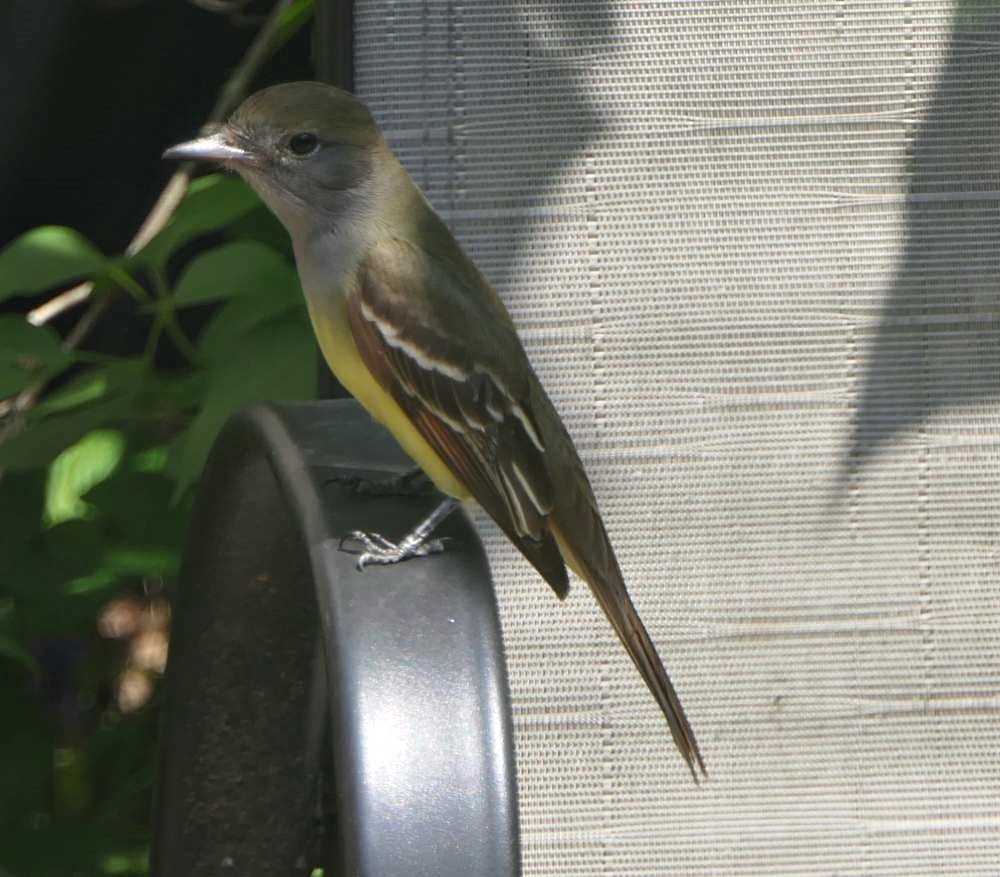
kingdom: Animalia
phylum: Chordata
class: Aves
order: Passeriformes
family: Tyrannidae
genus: Myiarchus
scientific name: Myiarchus crinitus
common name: Great crested flycatcher
